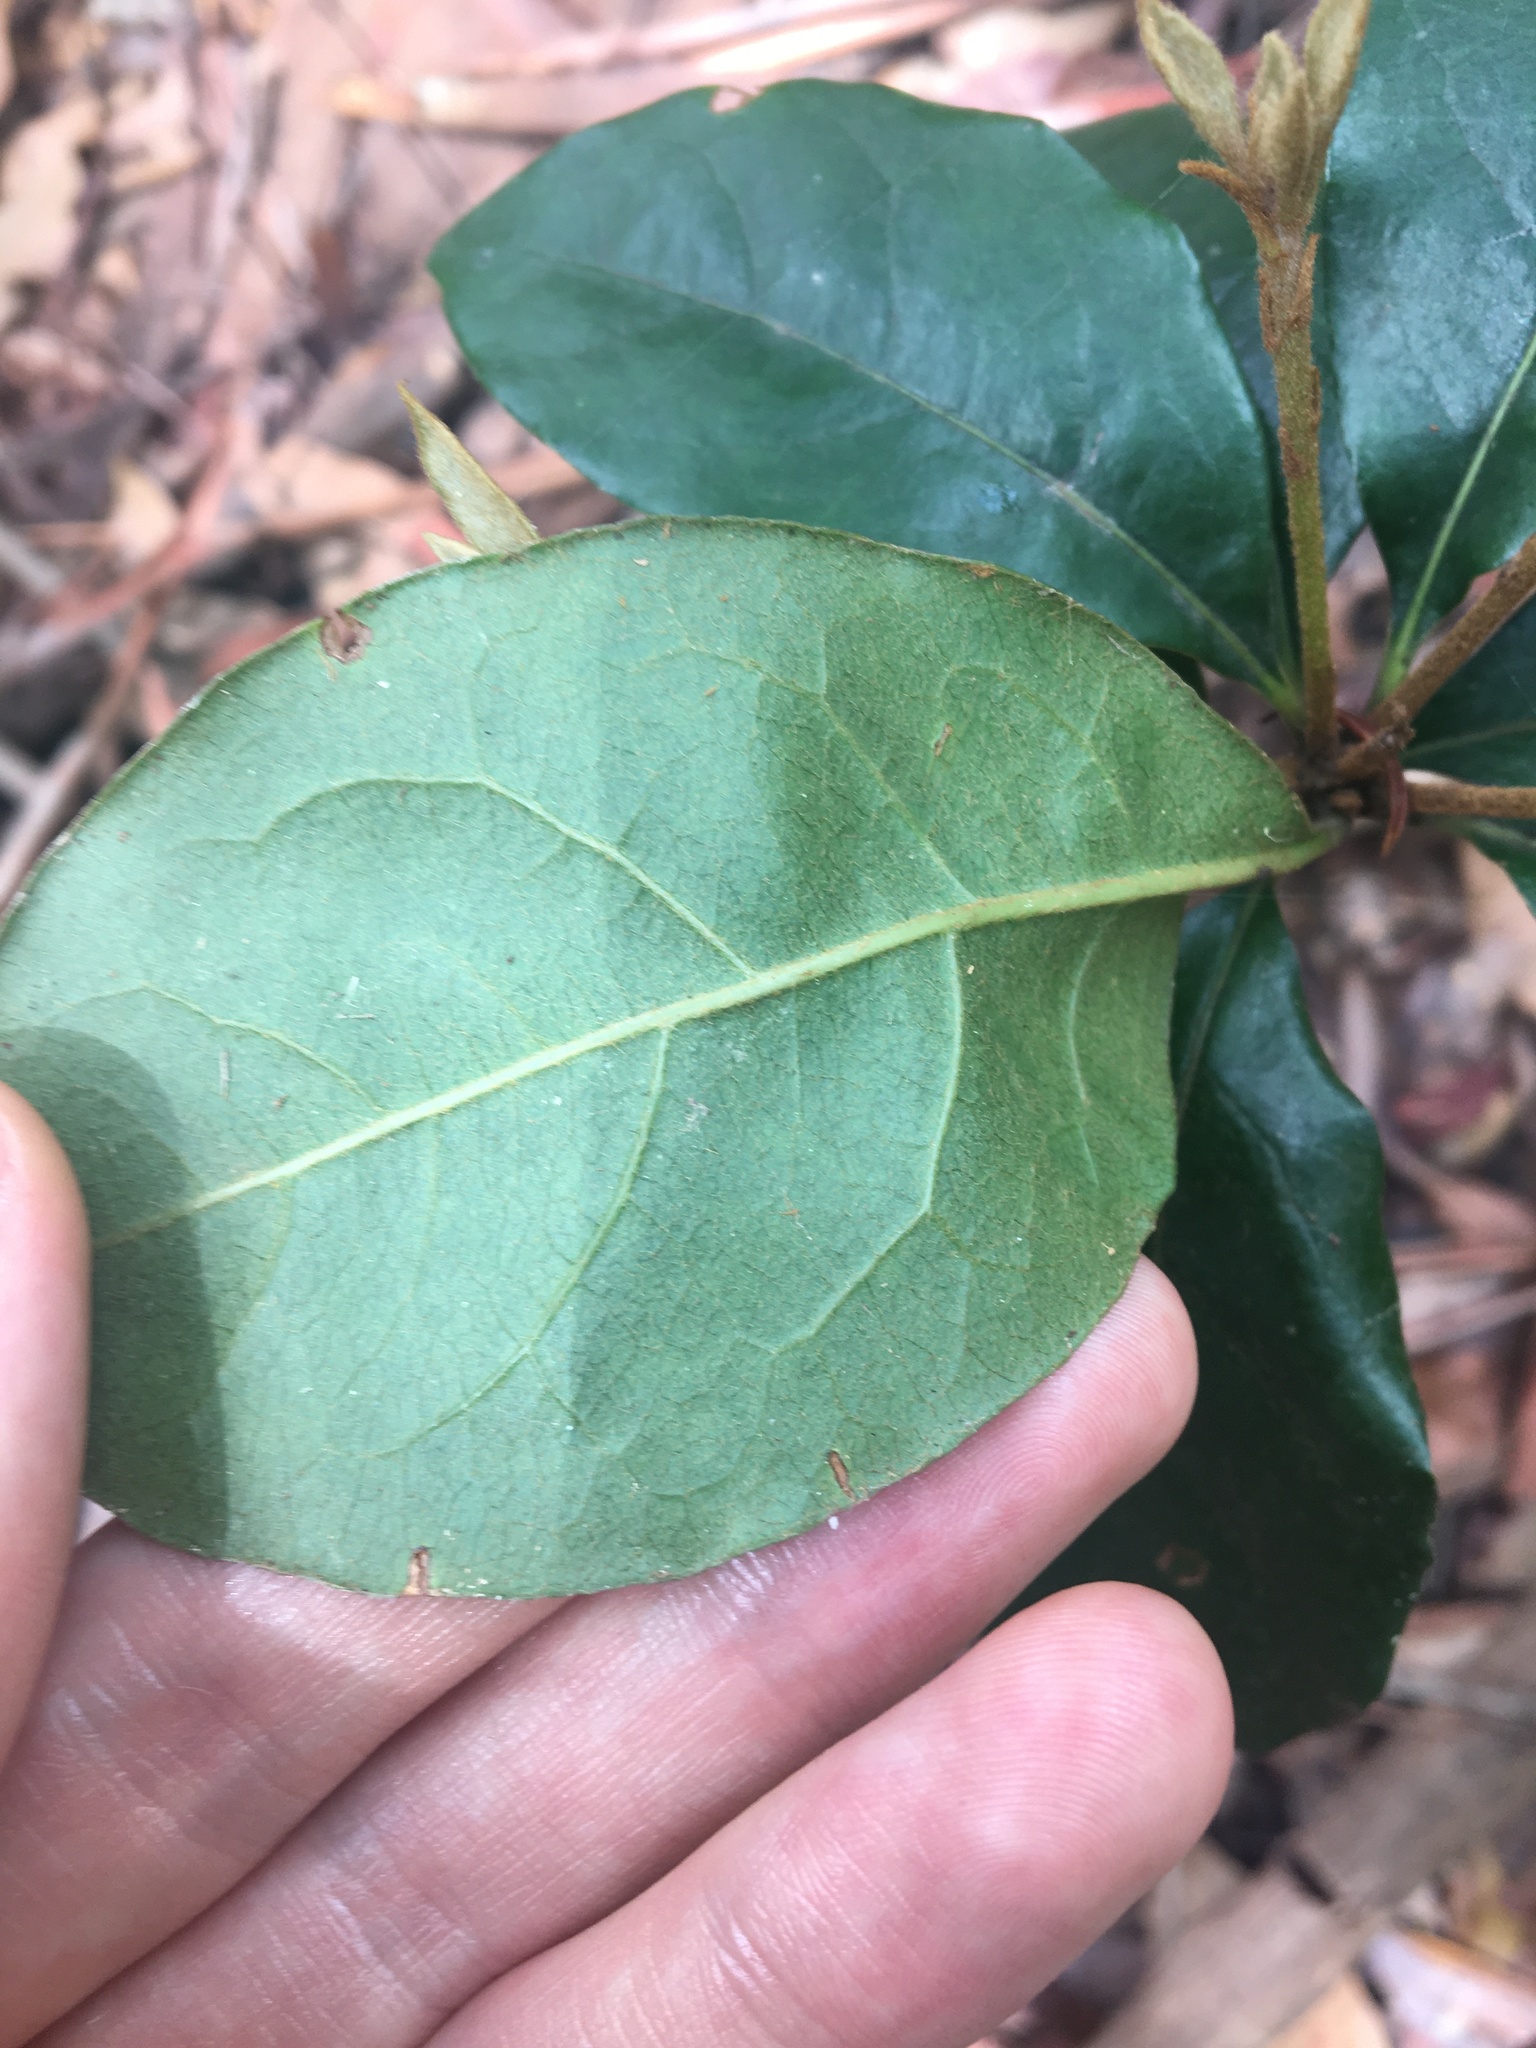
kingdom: Plantae
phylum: Tracheophyta
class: Magnoliopsida
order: Apiales
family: Pittosporaceae
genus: Pittosporum
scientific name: Pittosporum revolutum
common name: Brisbane-laurel
